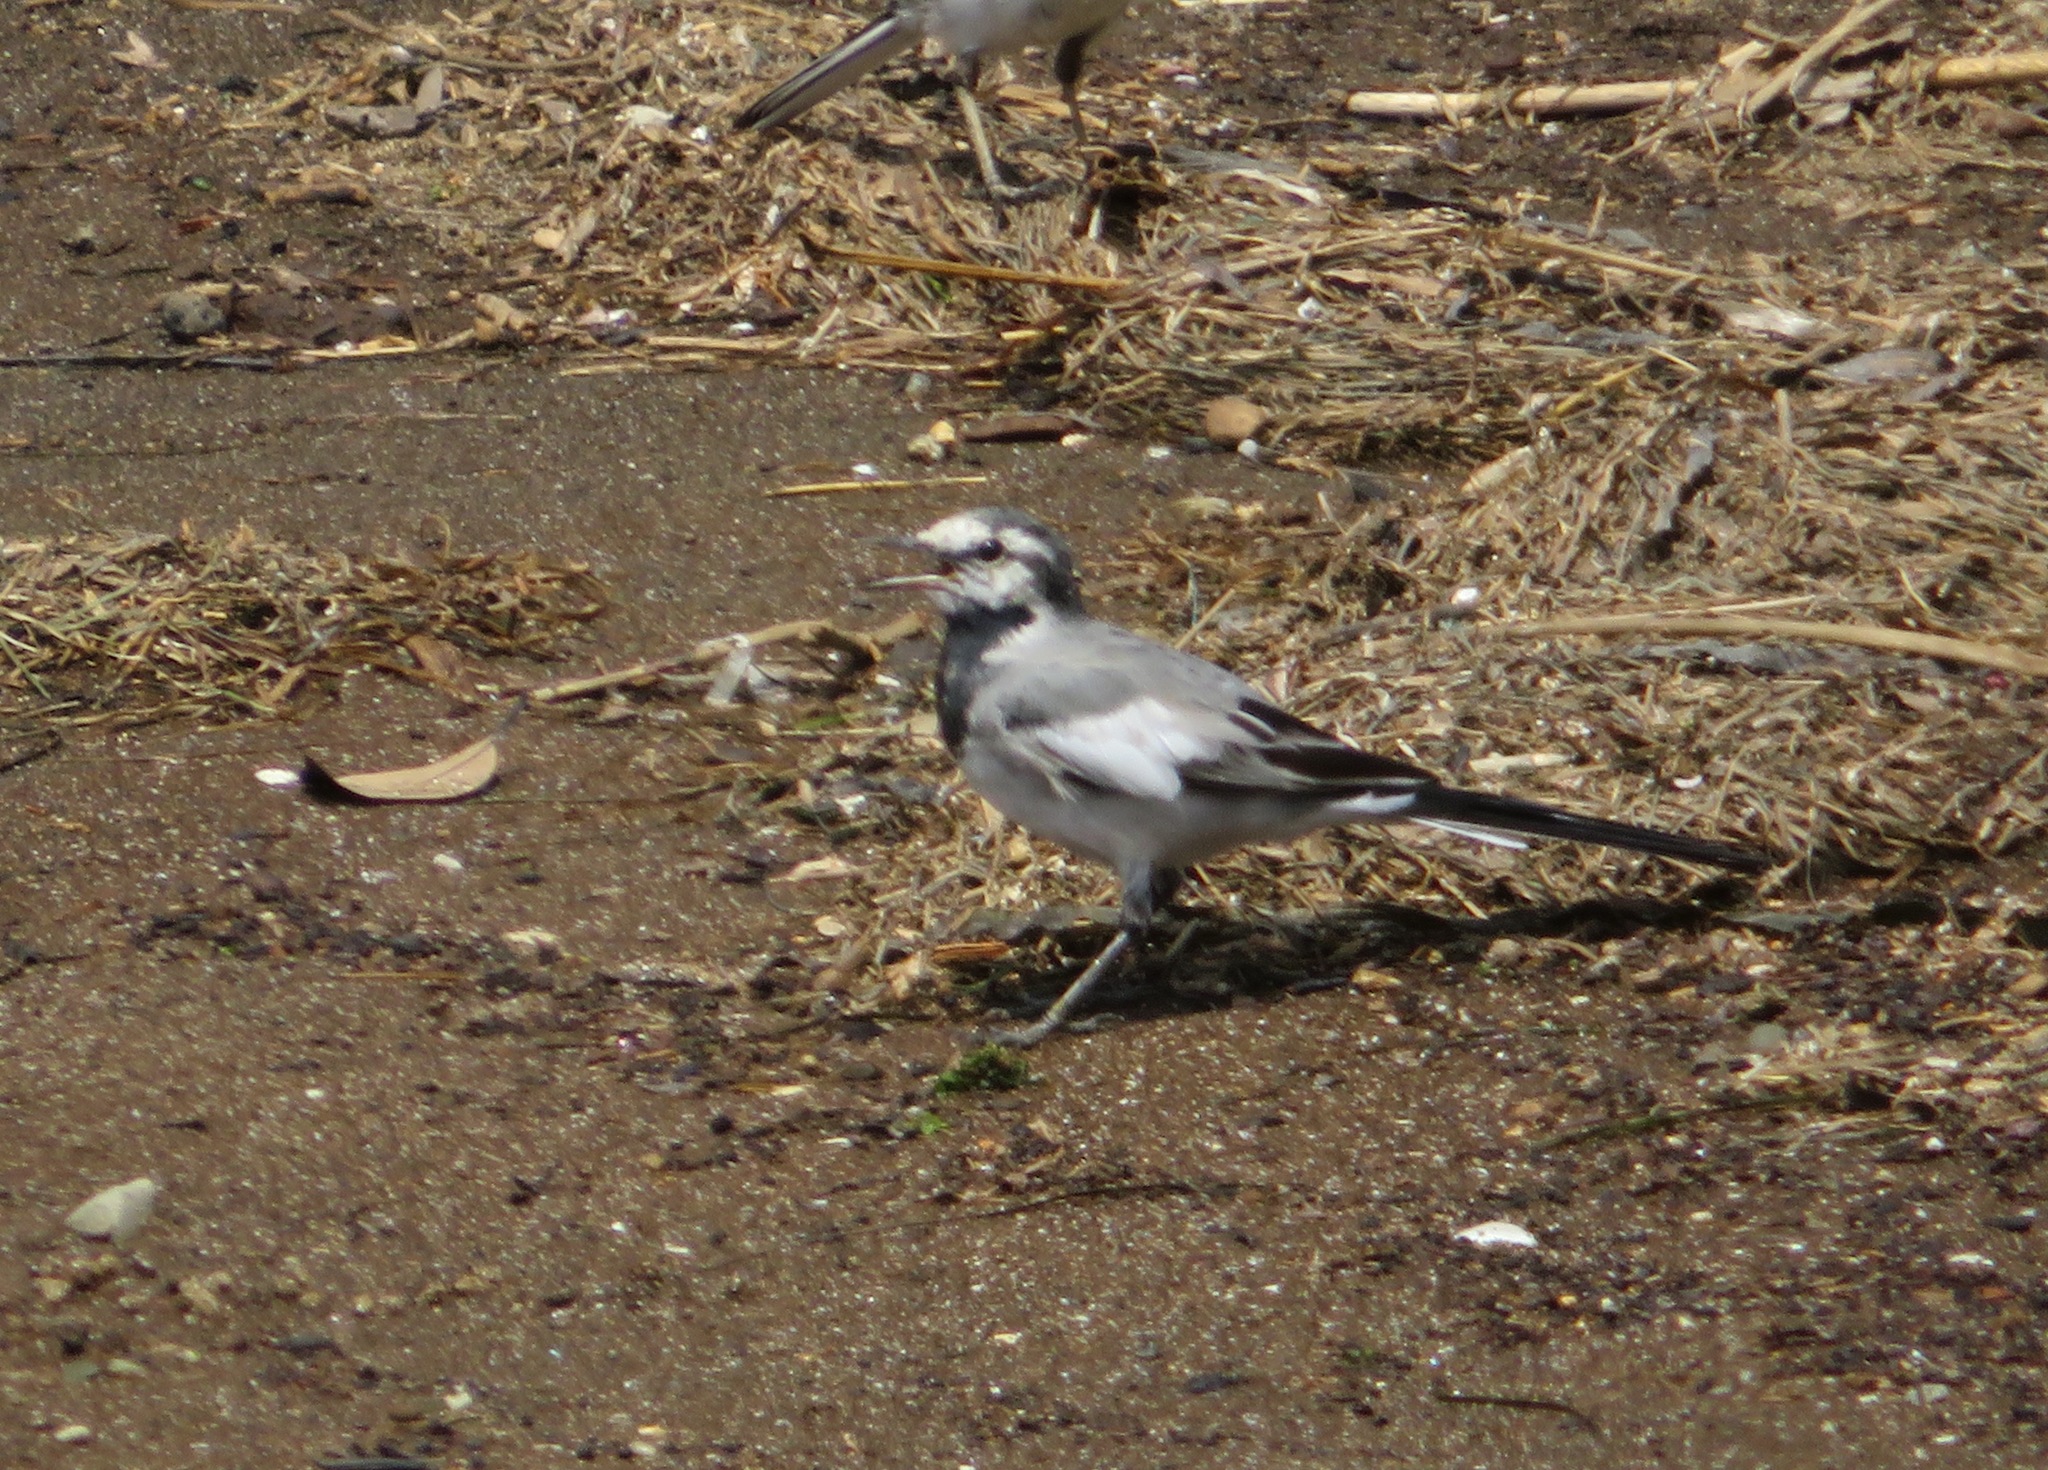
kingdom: Animalia
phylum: Chordata
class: Aves
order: Passeriformes
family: Motacillidae
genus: Motacilla
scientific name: Motacilla alba
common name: White wagtail
